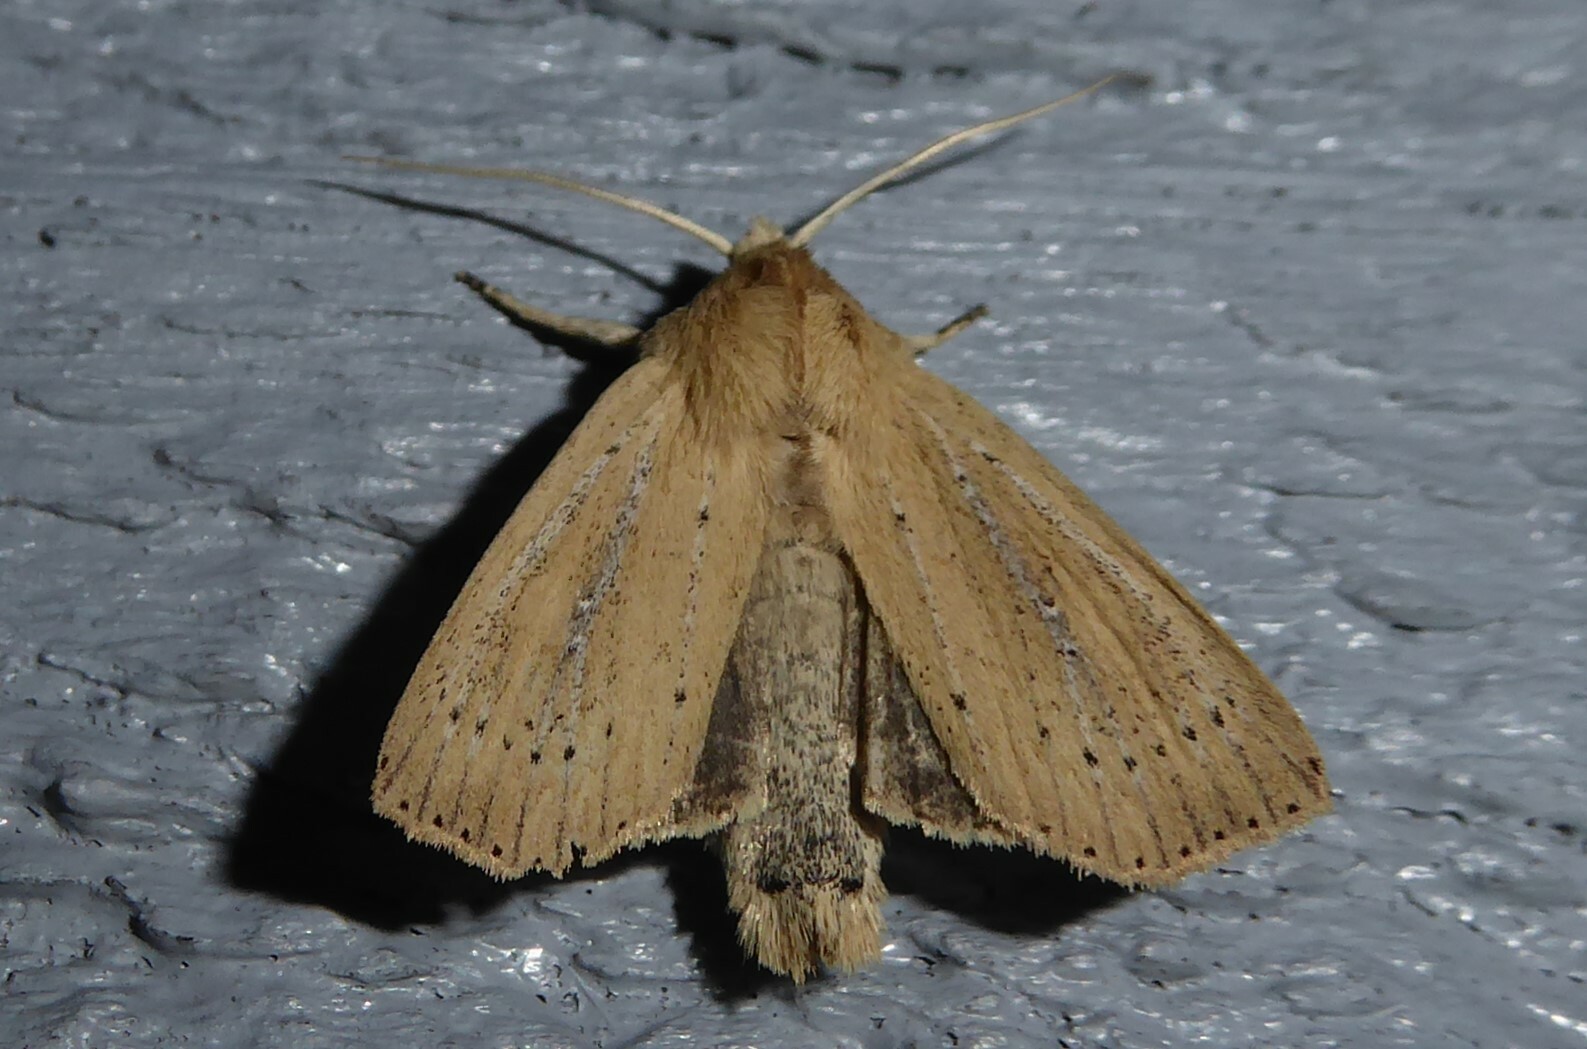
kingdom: Animalia
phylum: Arthropoda
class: Insecta
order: Lepidoptera
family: Noctuidae
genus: Ichneutica
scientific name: Ichneutica
